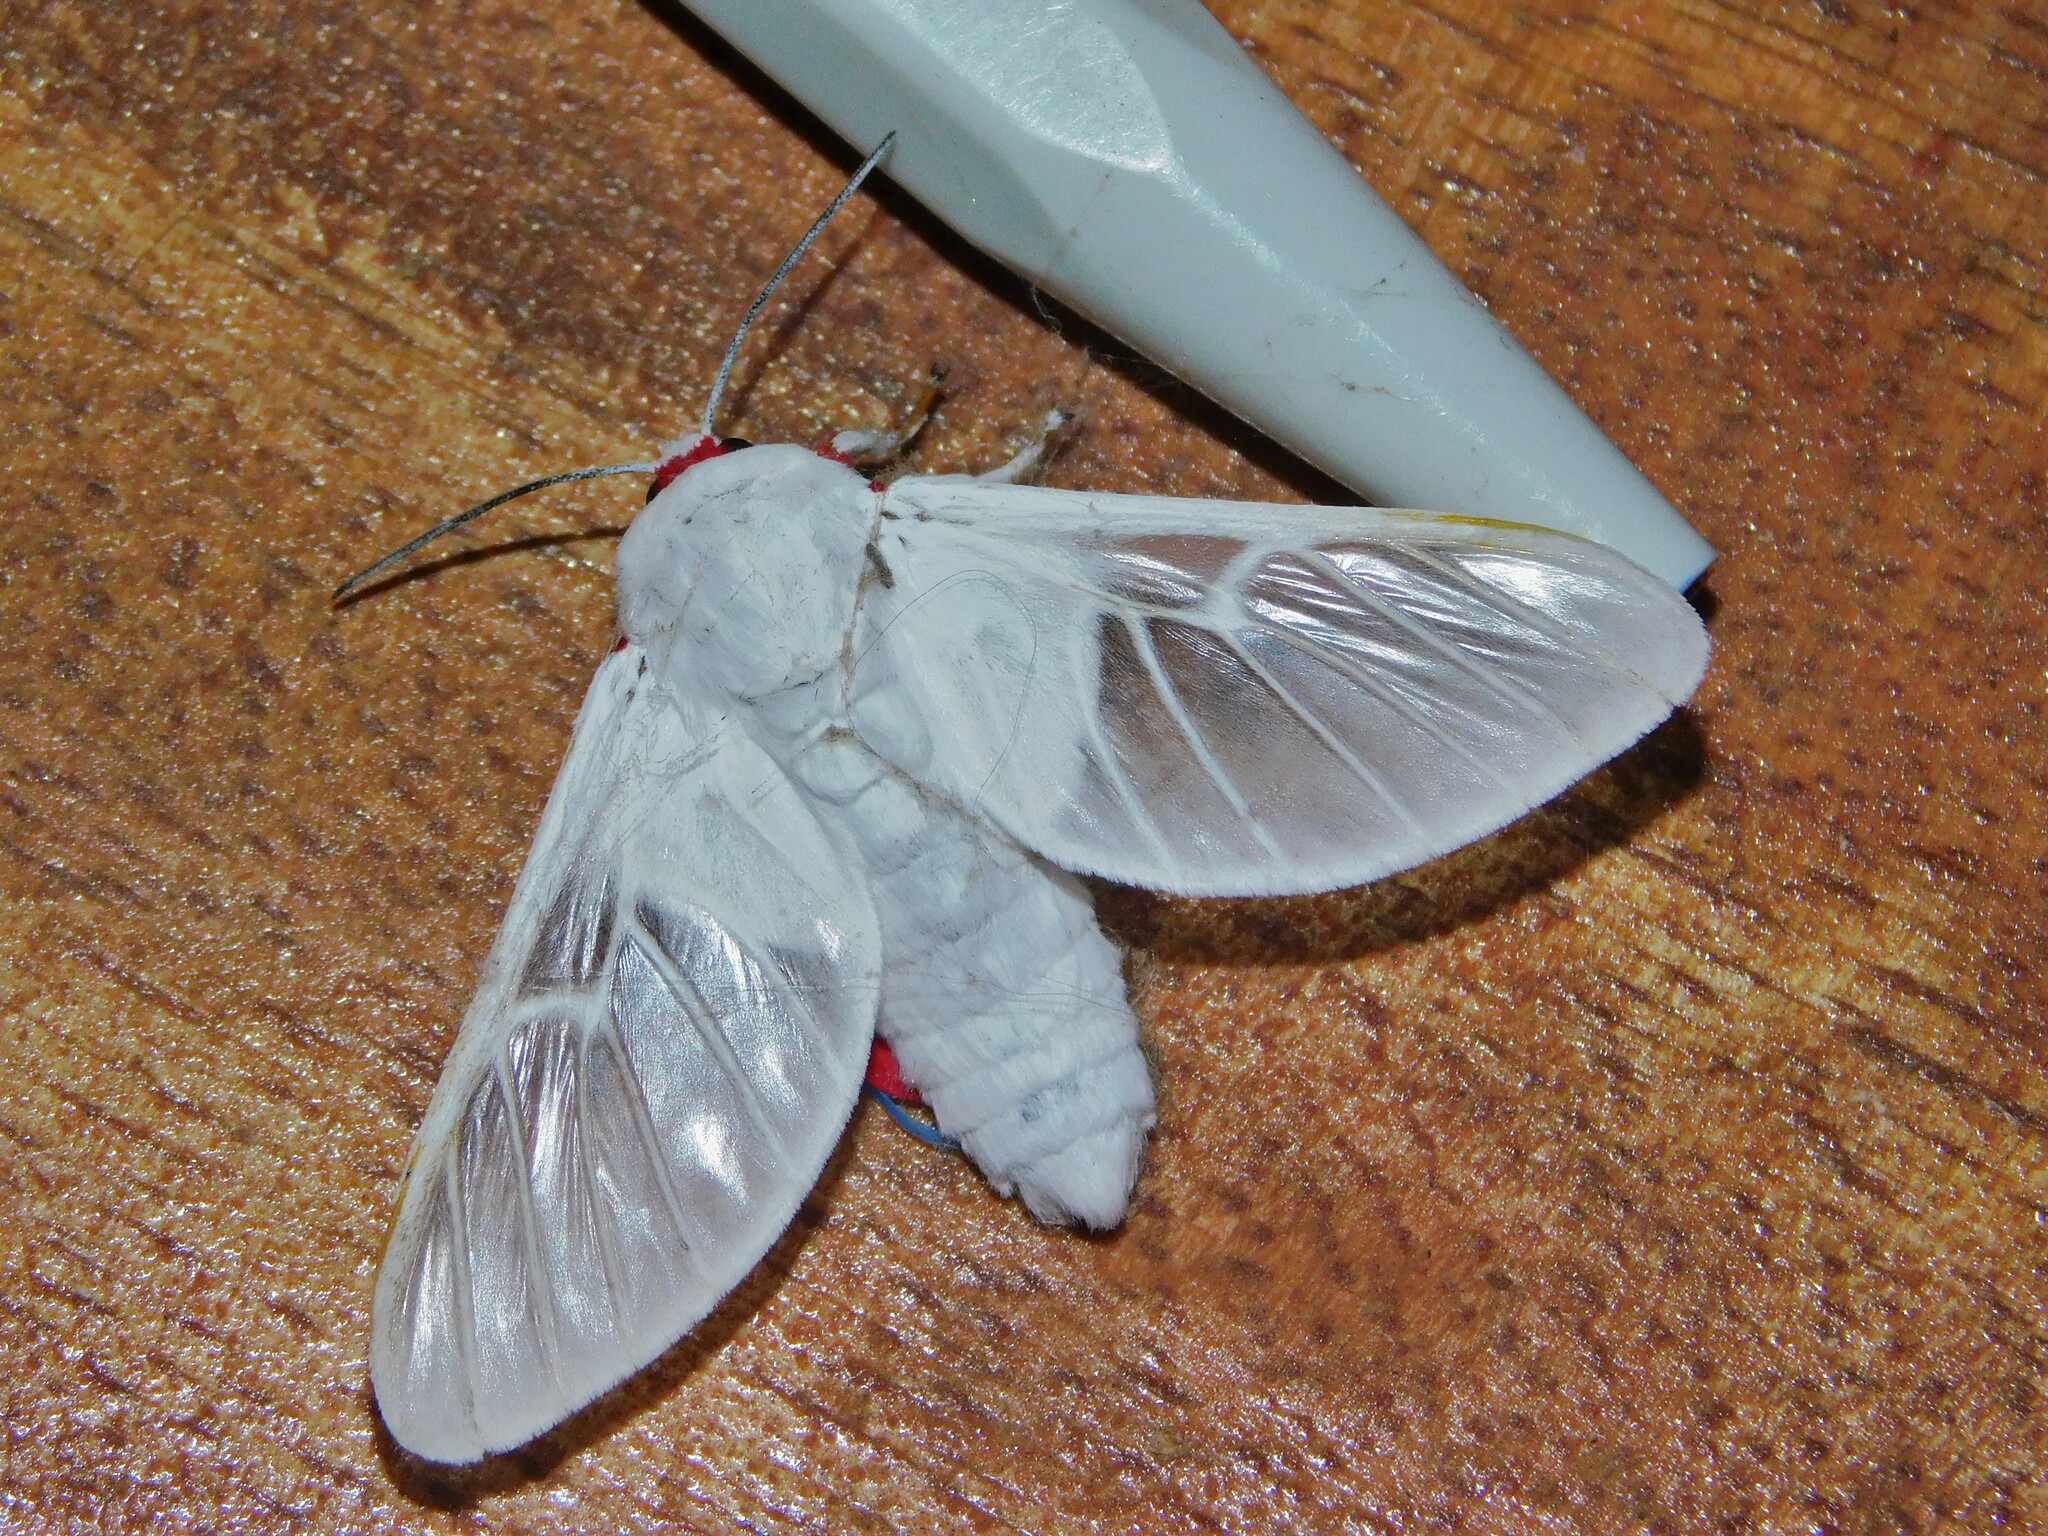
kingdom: Animalia
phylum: Arthropoda
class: Insecta
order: Lepidoptera
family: Erebidae
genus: Balacra
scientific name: Balacra pulchra
